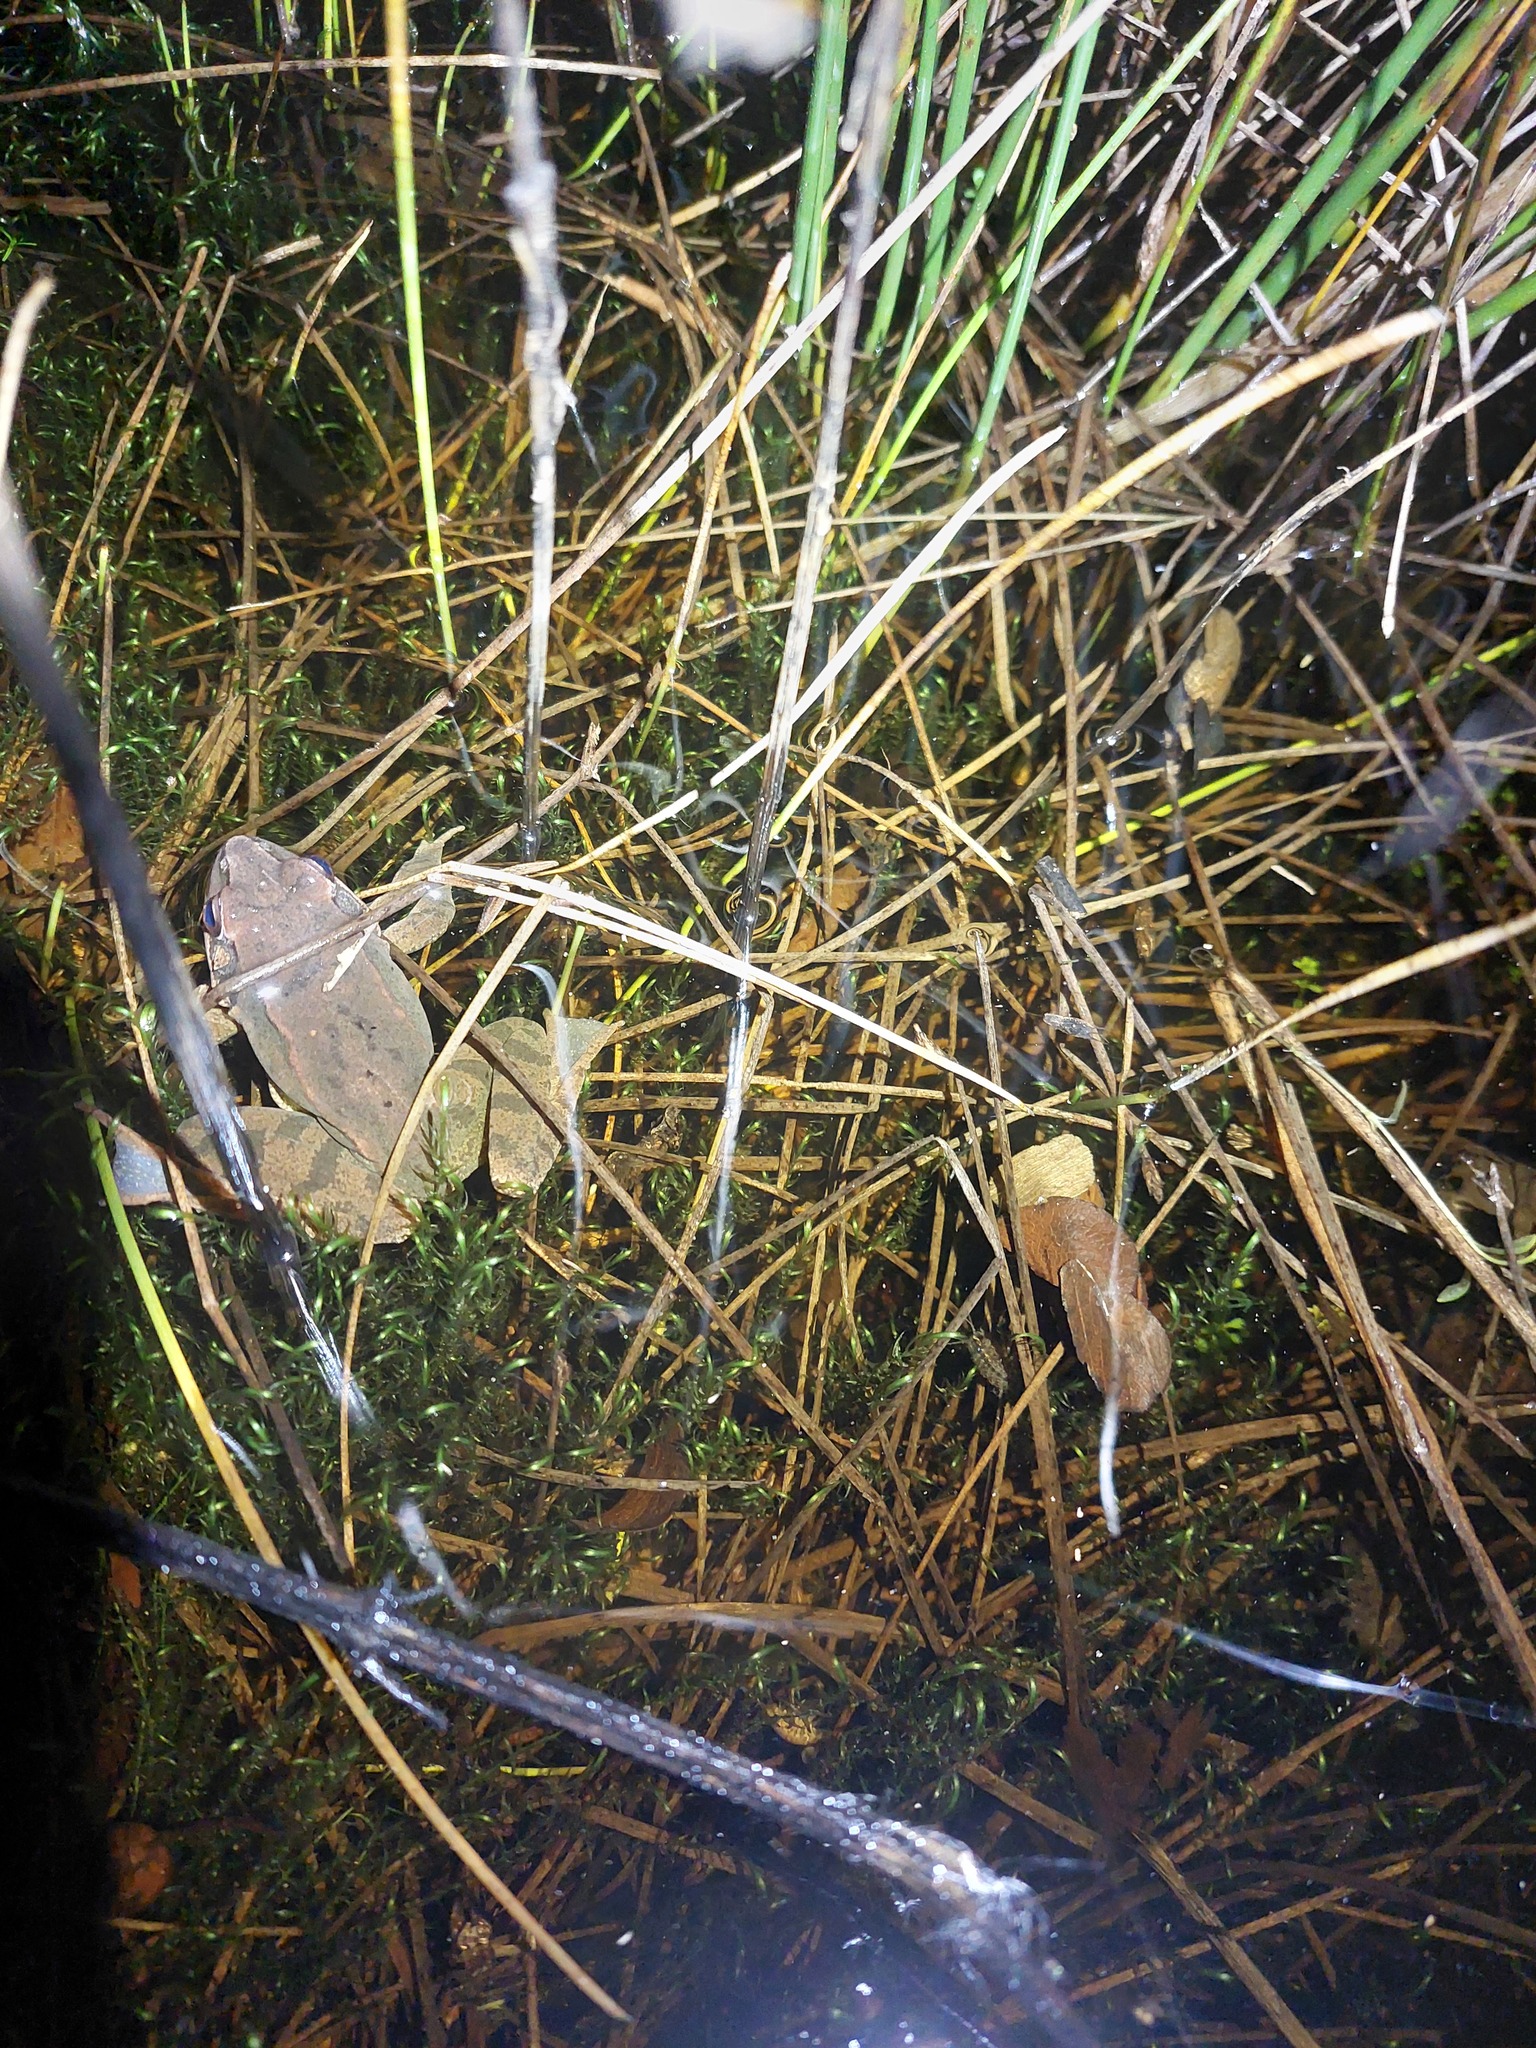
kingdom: Animalia
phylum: Chordata
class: Amphibia
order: Anura
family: Ranidae
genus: Rana
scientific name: Rana dalmatina
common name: Agile frog
